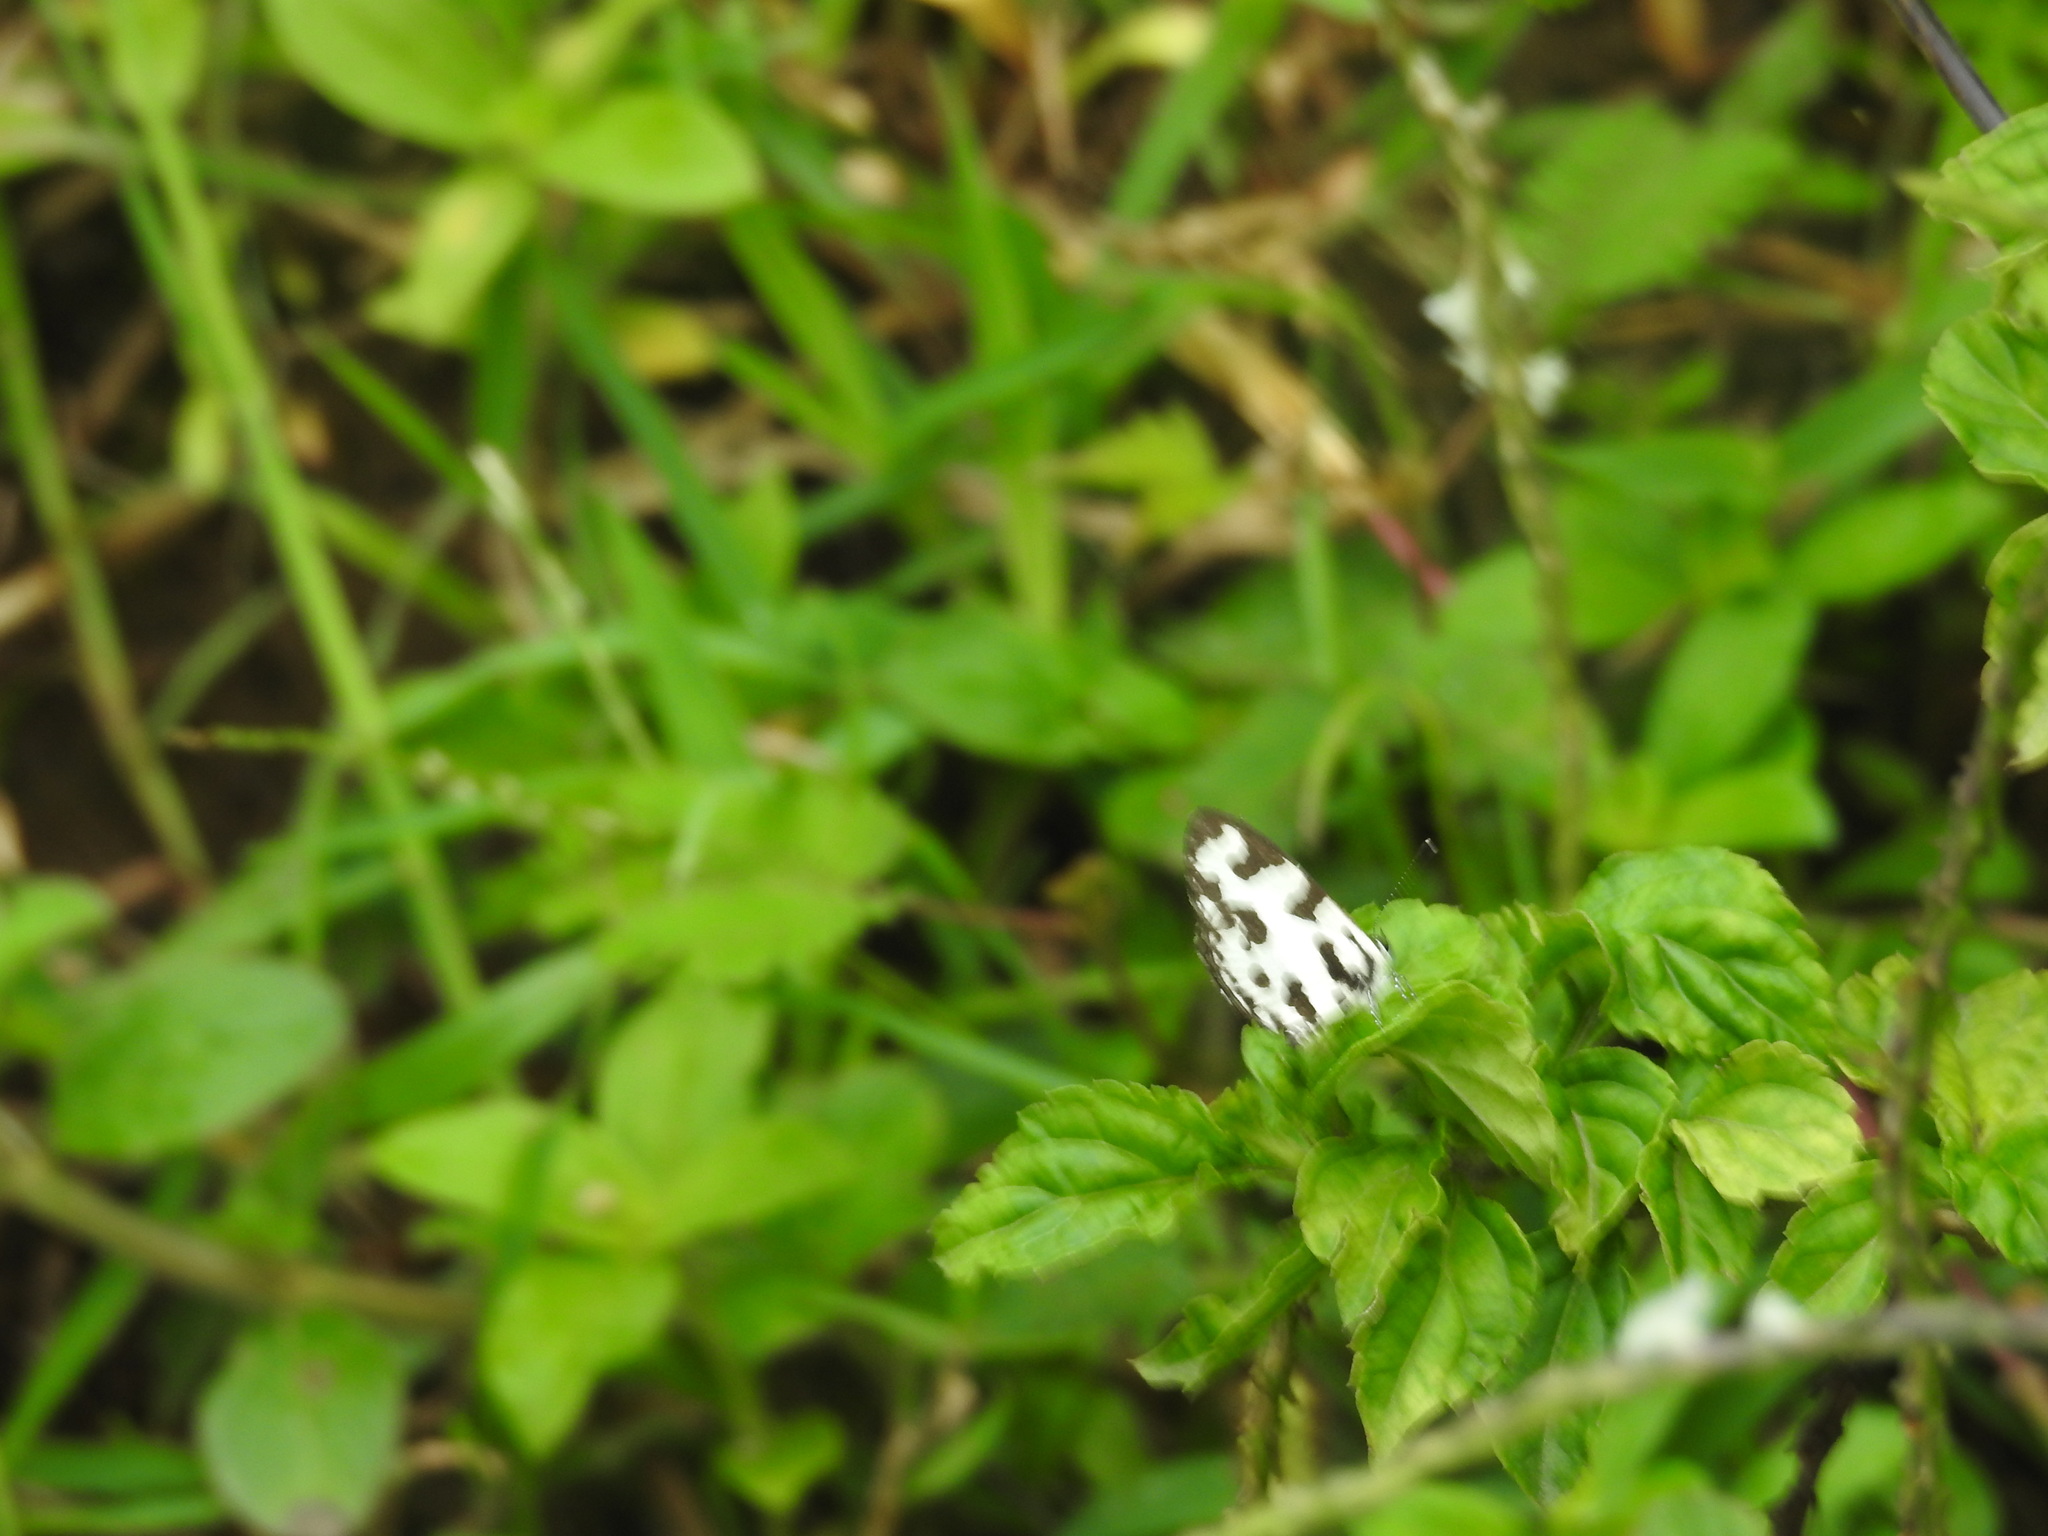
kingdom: Animalia
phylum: Arthropoda
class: Insecta
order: Lepidoptera
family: Lycaenidae
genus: Caleta
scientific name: Caleta decidia
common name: Angled pierrot
